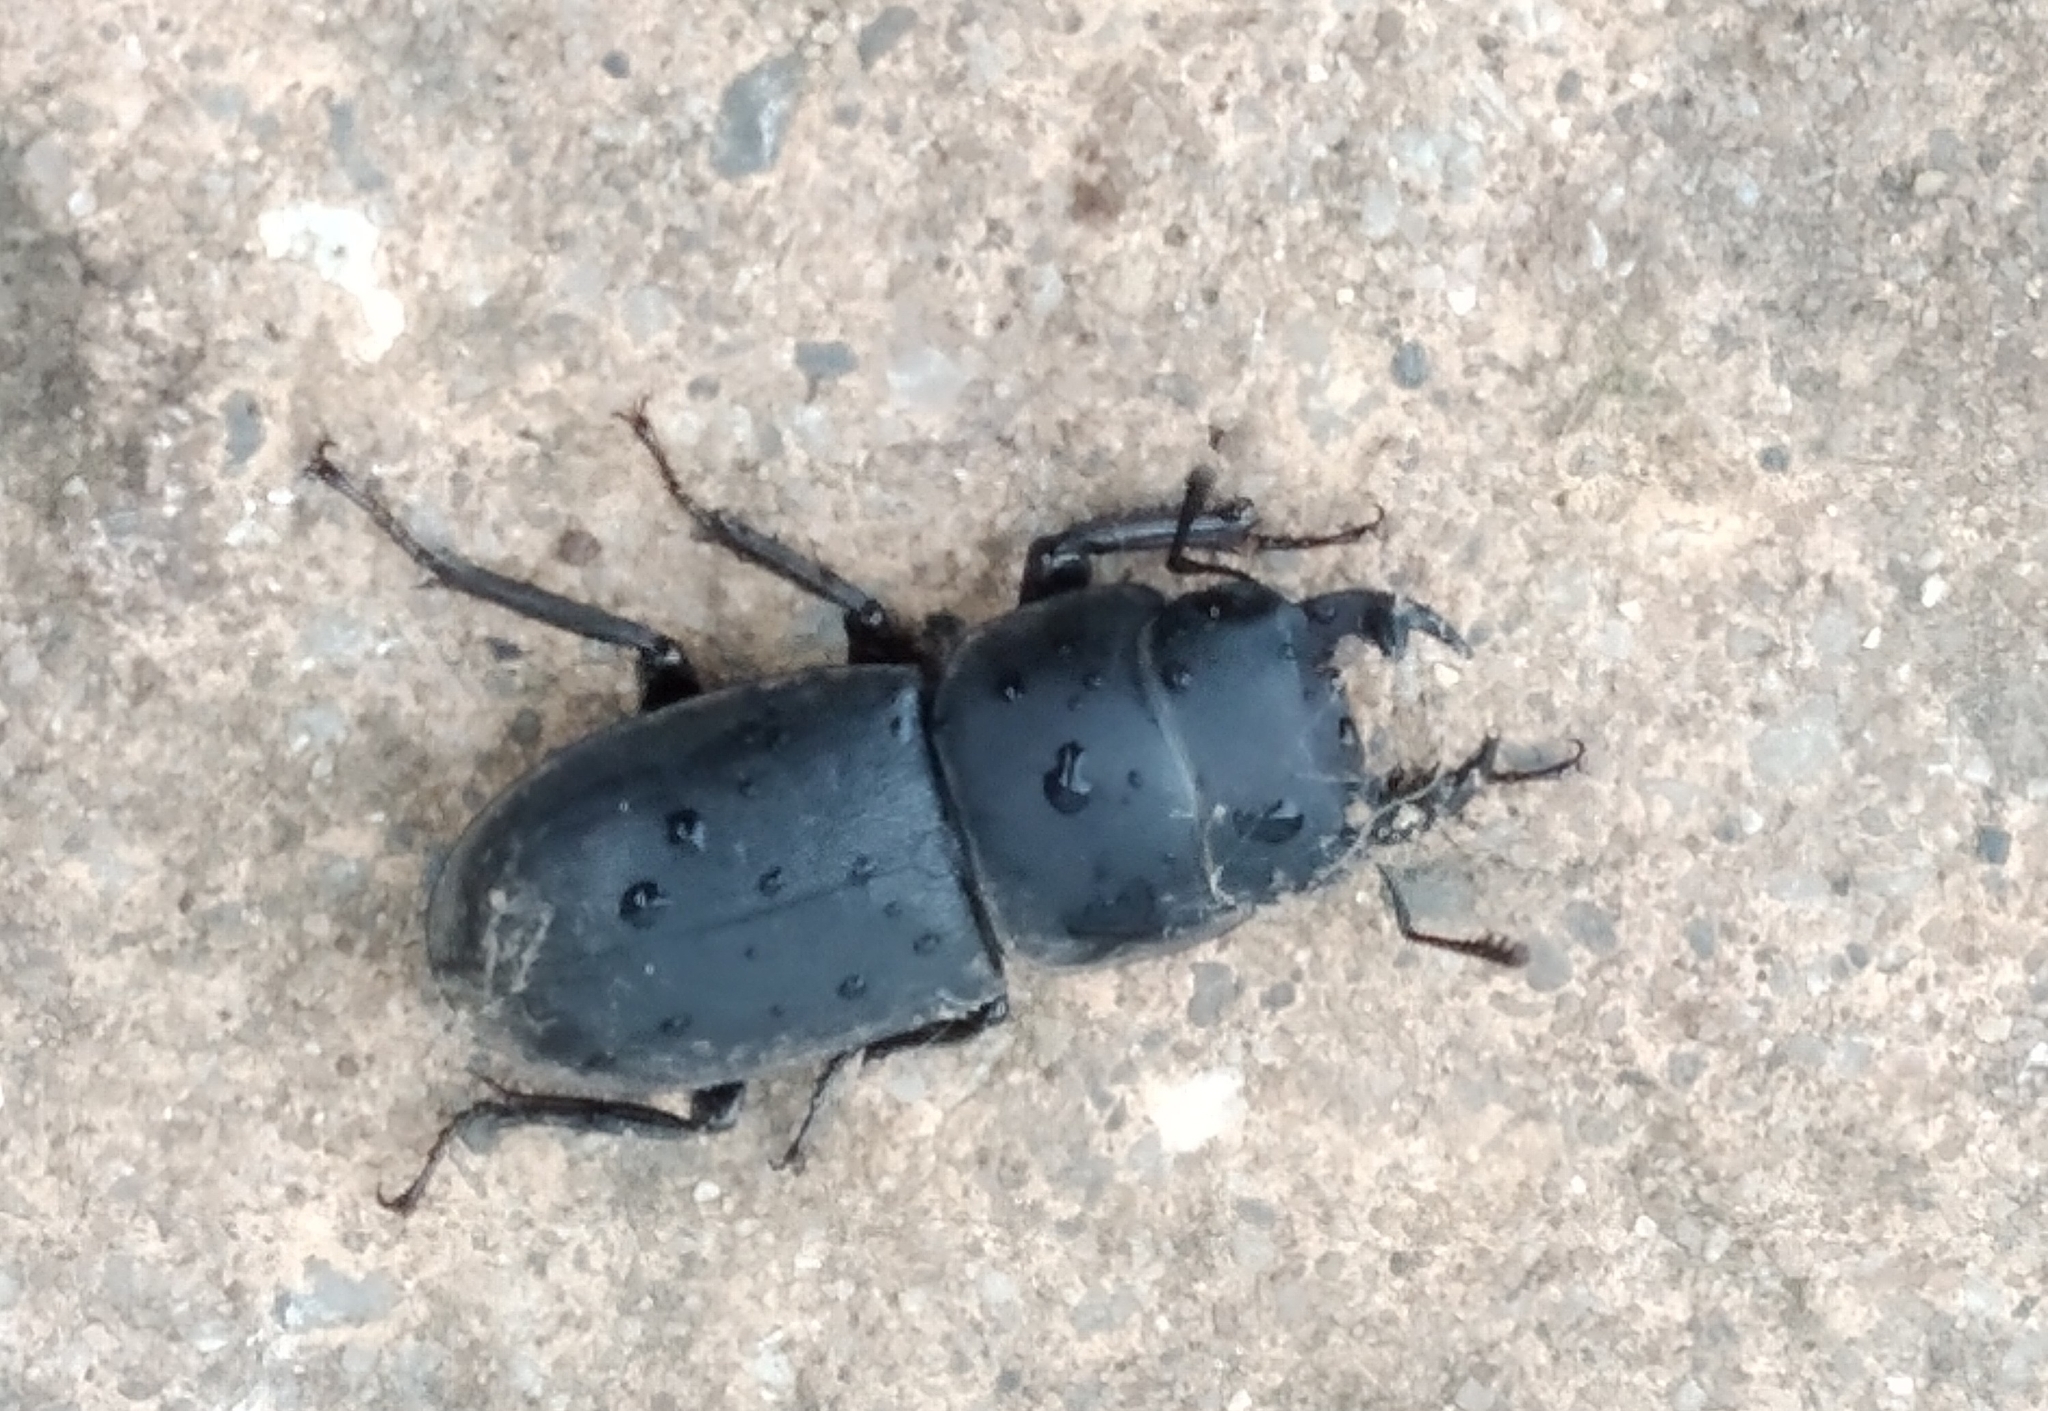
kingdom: Animalia
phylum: Arthropoda
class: Insecta
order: Coleoptera
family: Lucanidae
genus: Dorcus
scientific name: Dorcus parallelipipedus
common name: Lesser stag beetle
